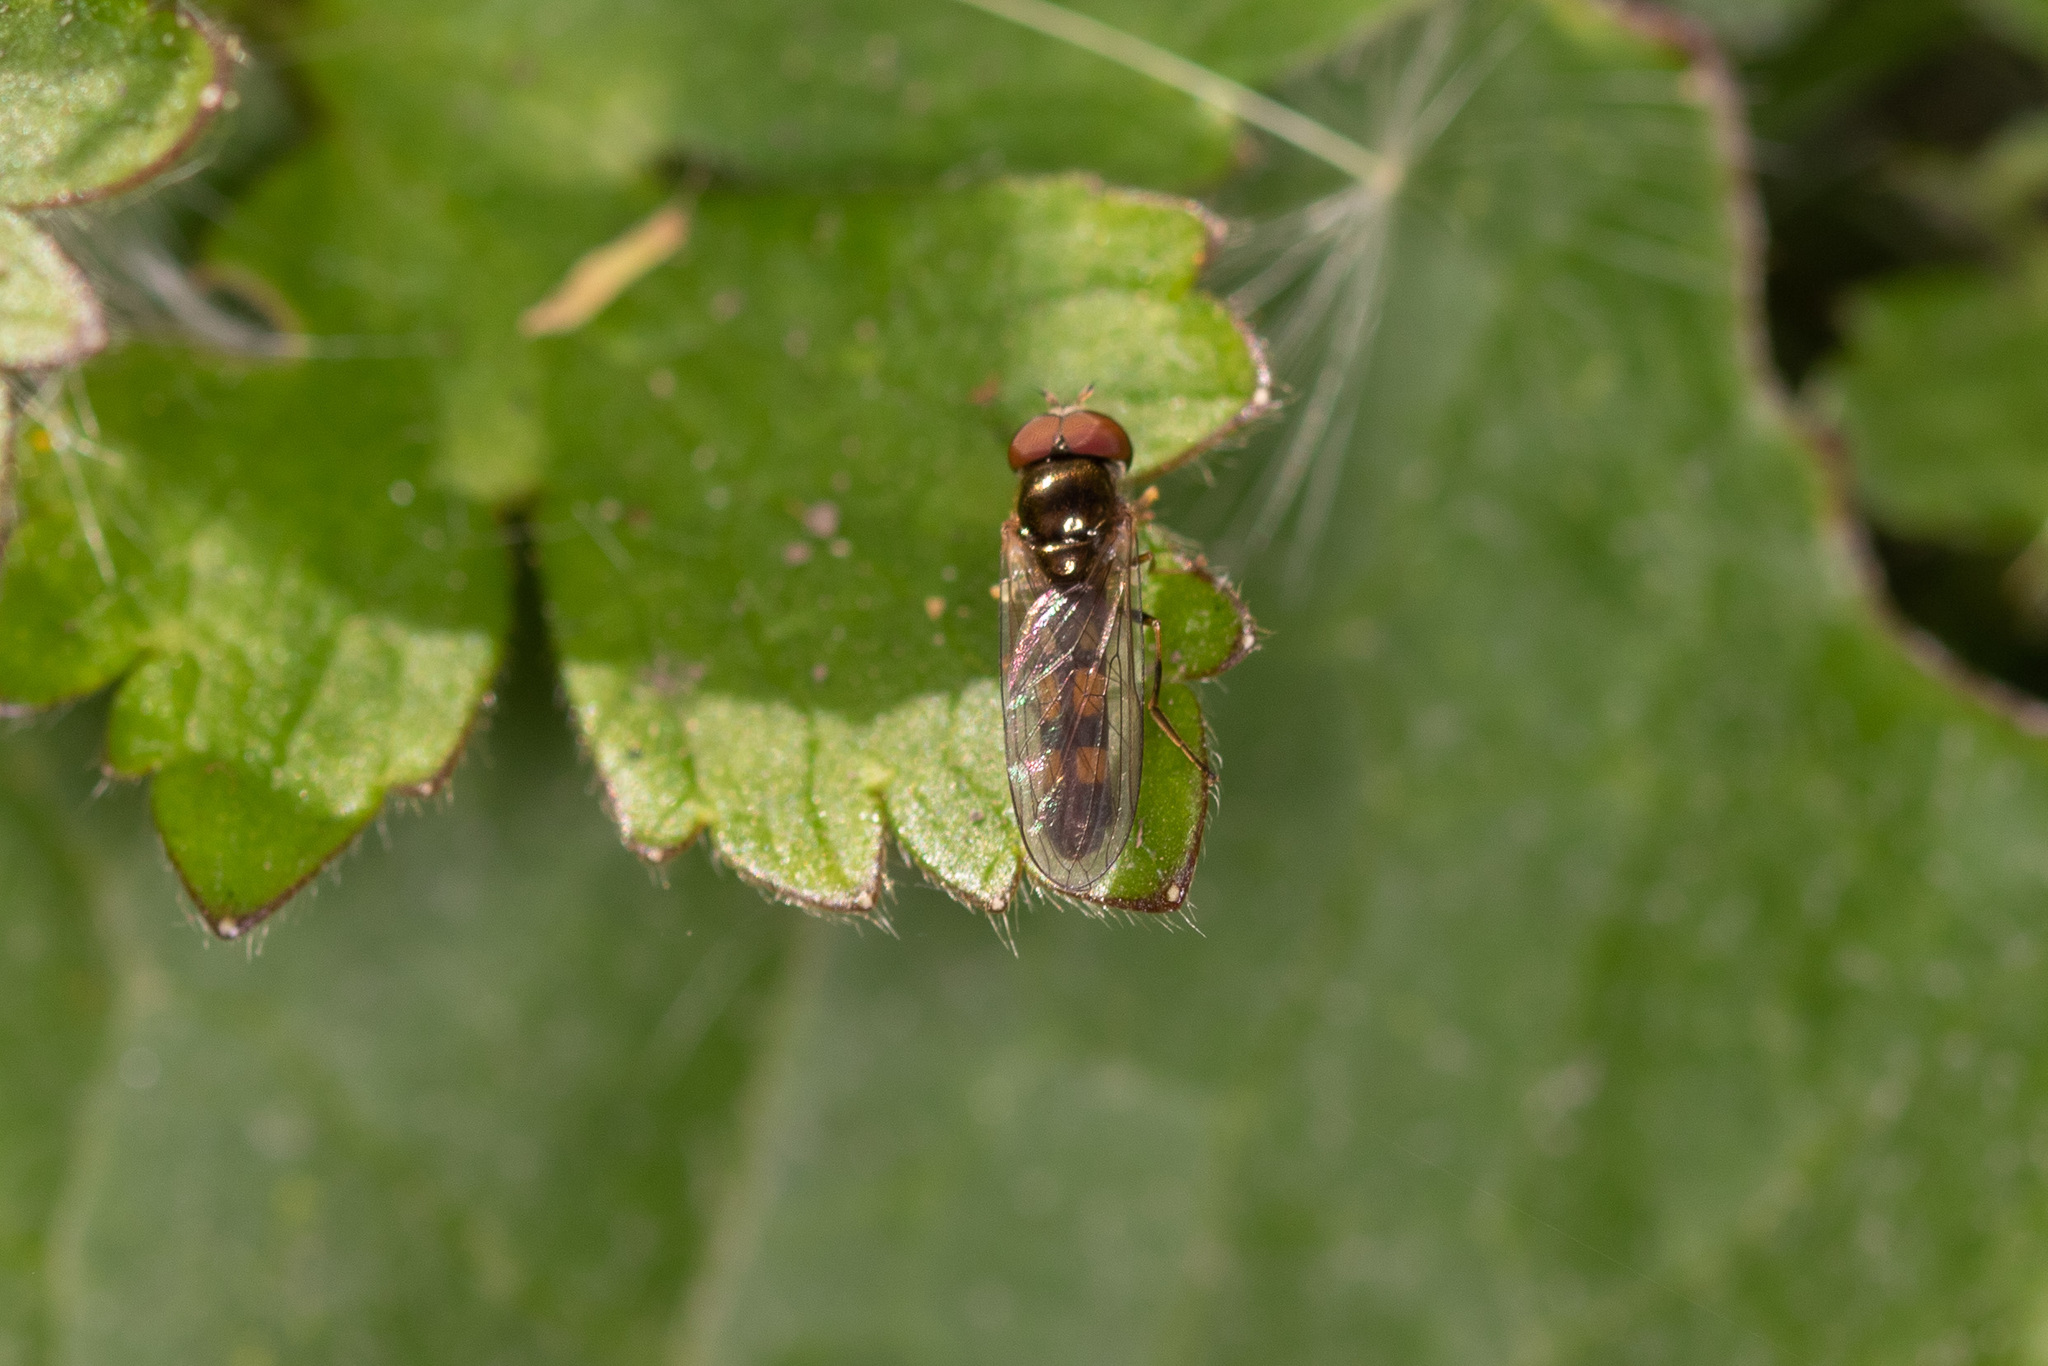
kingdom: Animalia
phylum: Arthropoda
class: Insecta
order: Diptera
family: Syrphidae
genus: Melanostoma
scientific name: Melanostoma scalare
